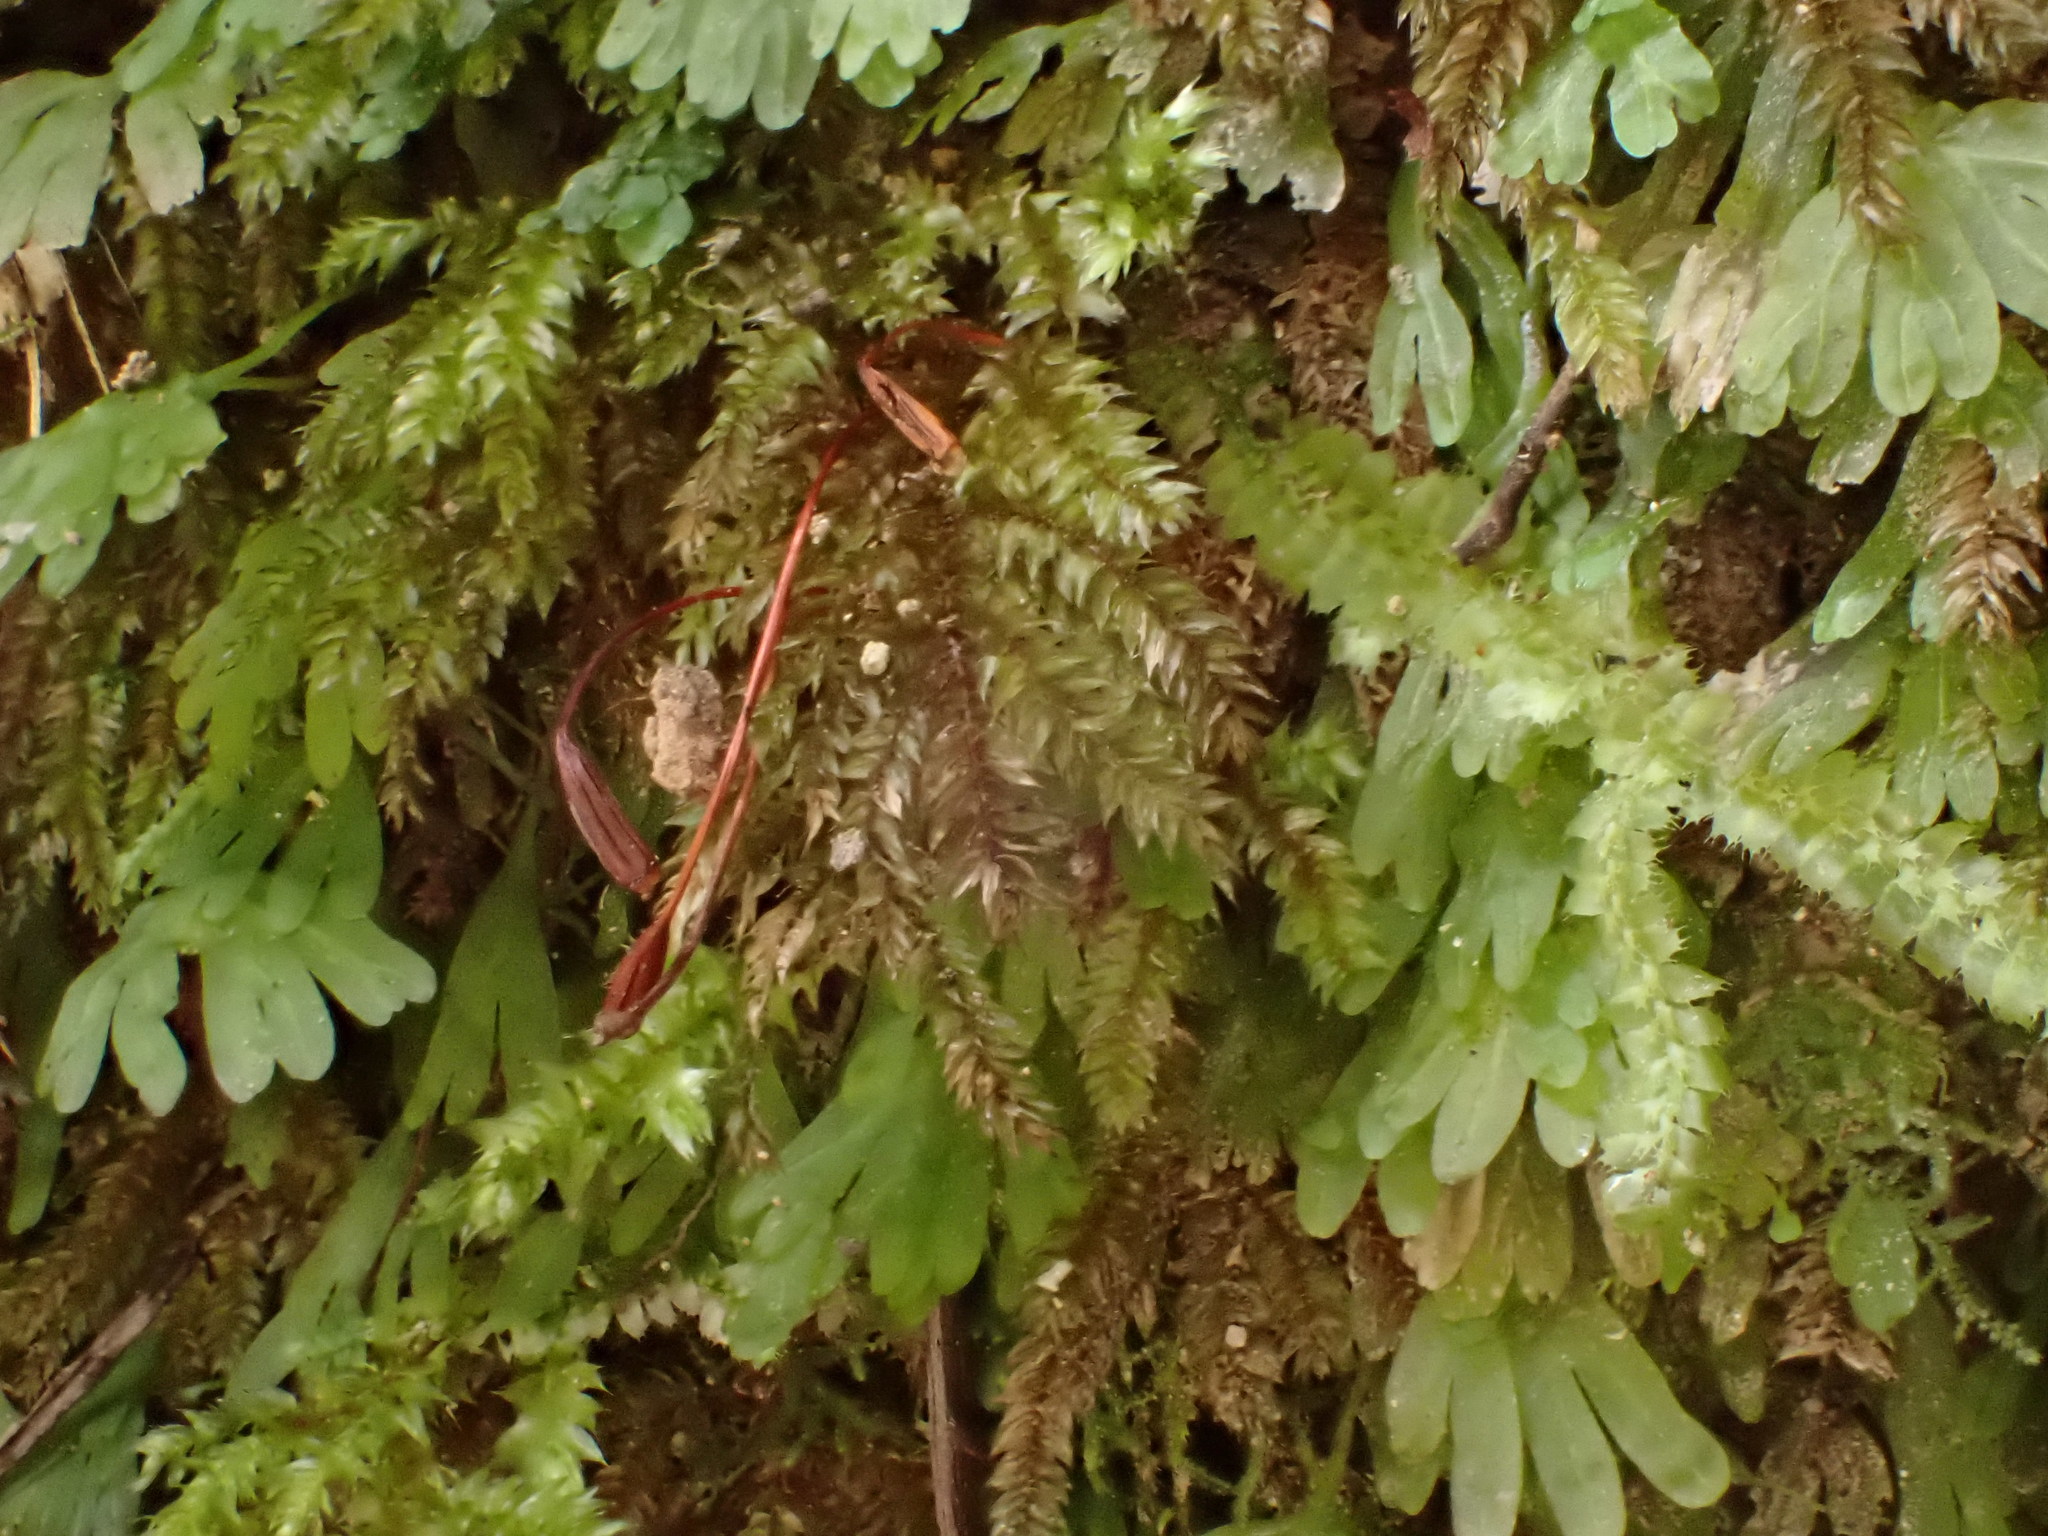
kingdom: Plantae
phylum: Bryophyta
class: Bryopsida
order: Hypnodendrales
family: Spiridentaceae
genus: Hypnodendron
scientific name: Hypnodendron arcuatum
